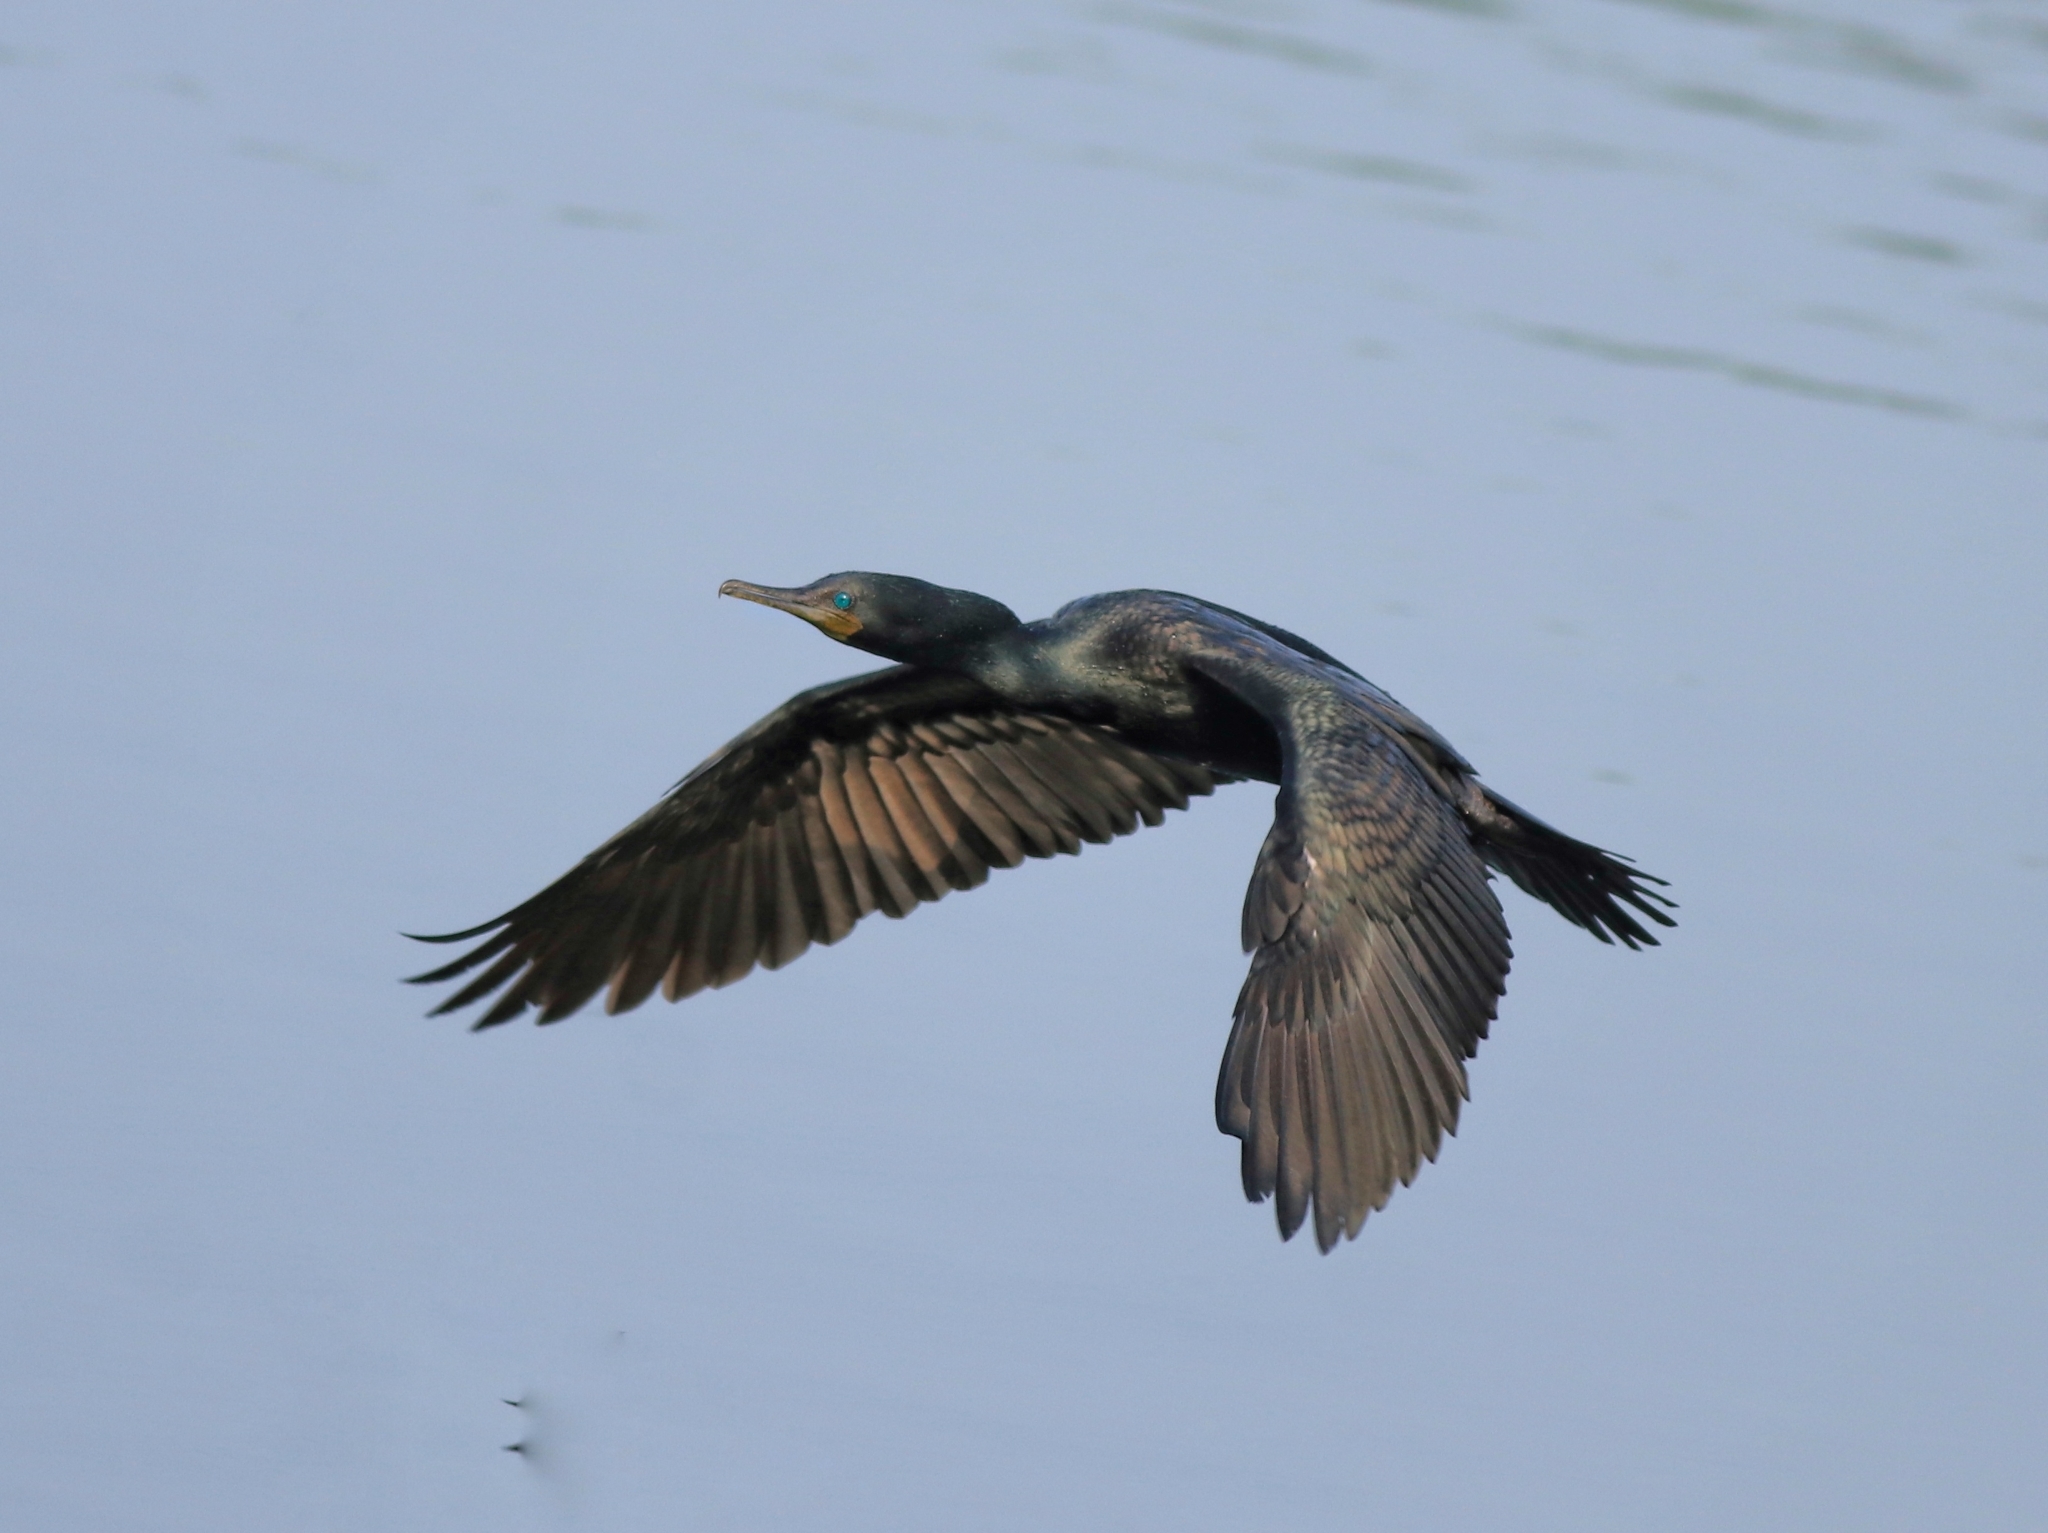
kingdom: Animalia
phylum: Chordata
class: Aves
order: Suliformes
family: Phalacrocoracidae
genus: Phalacrocorax
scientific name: Phalacrocorax fuscicollis
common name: Indian cormorant
